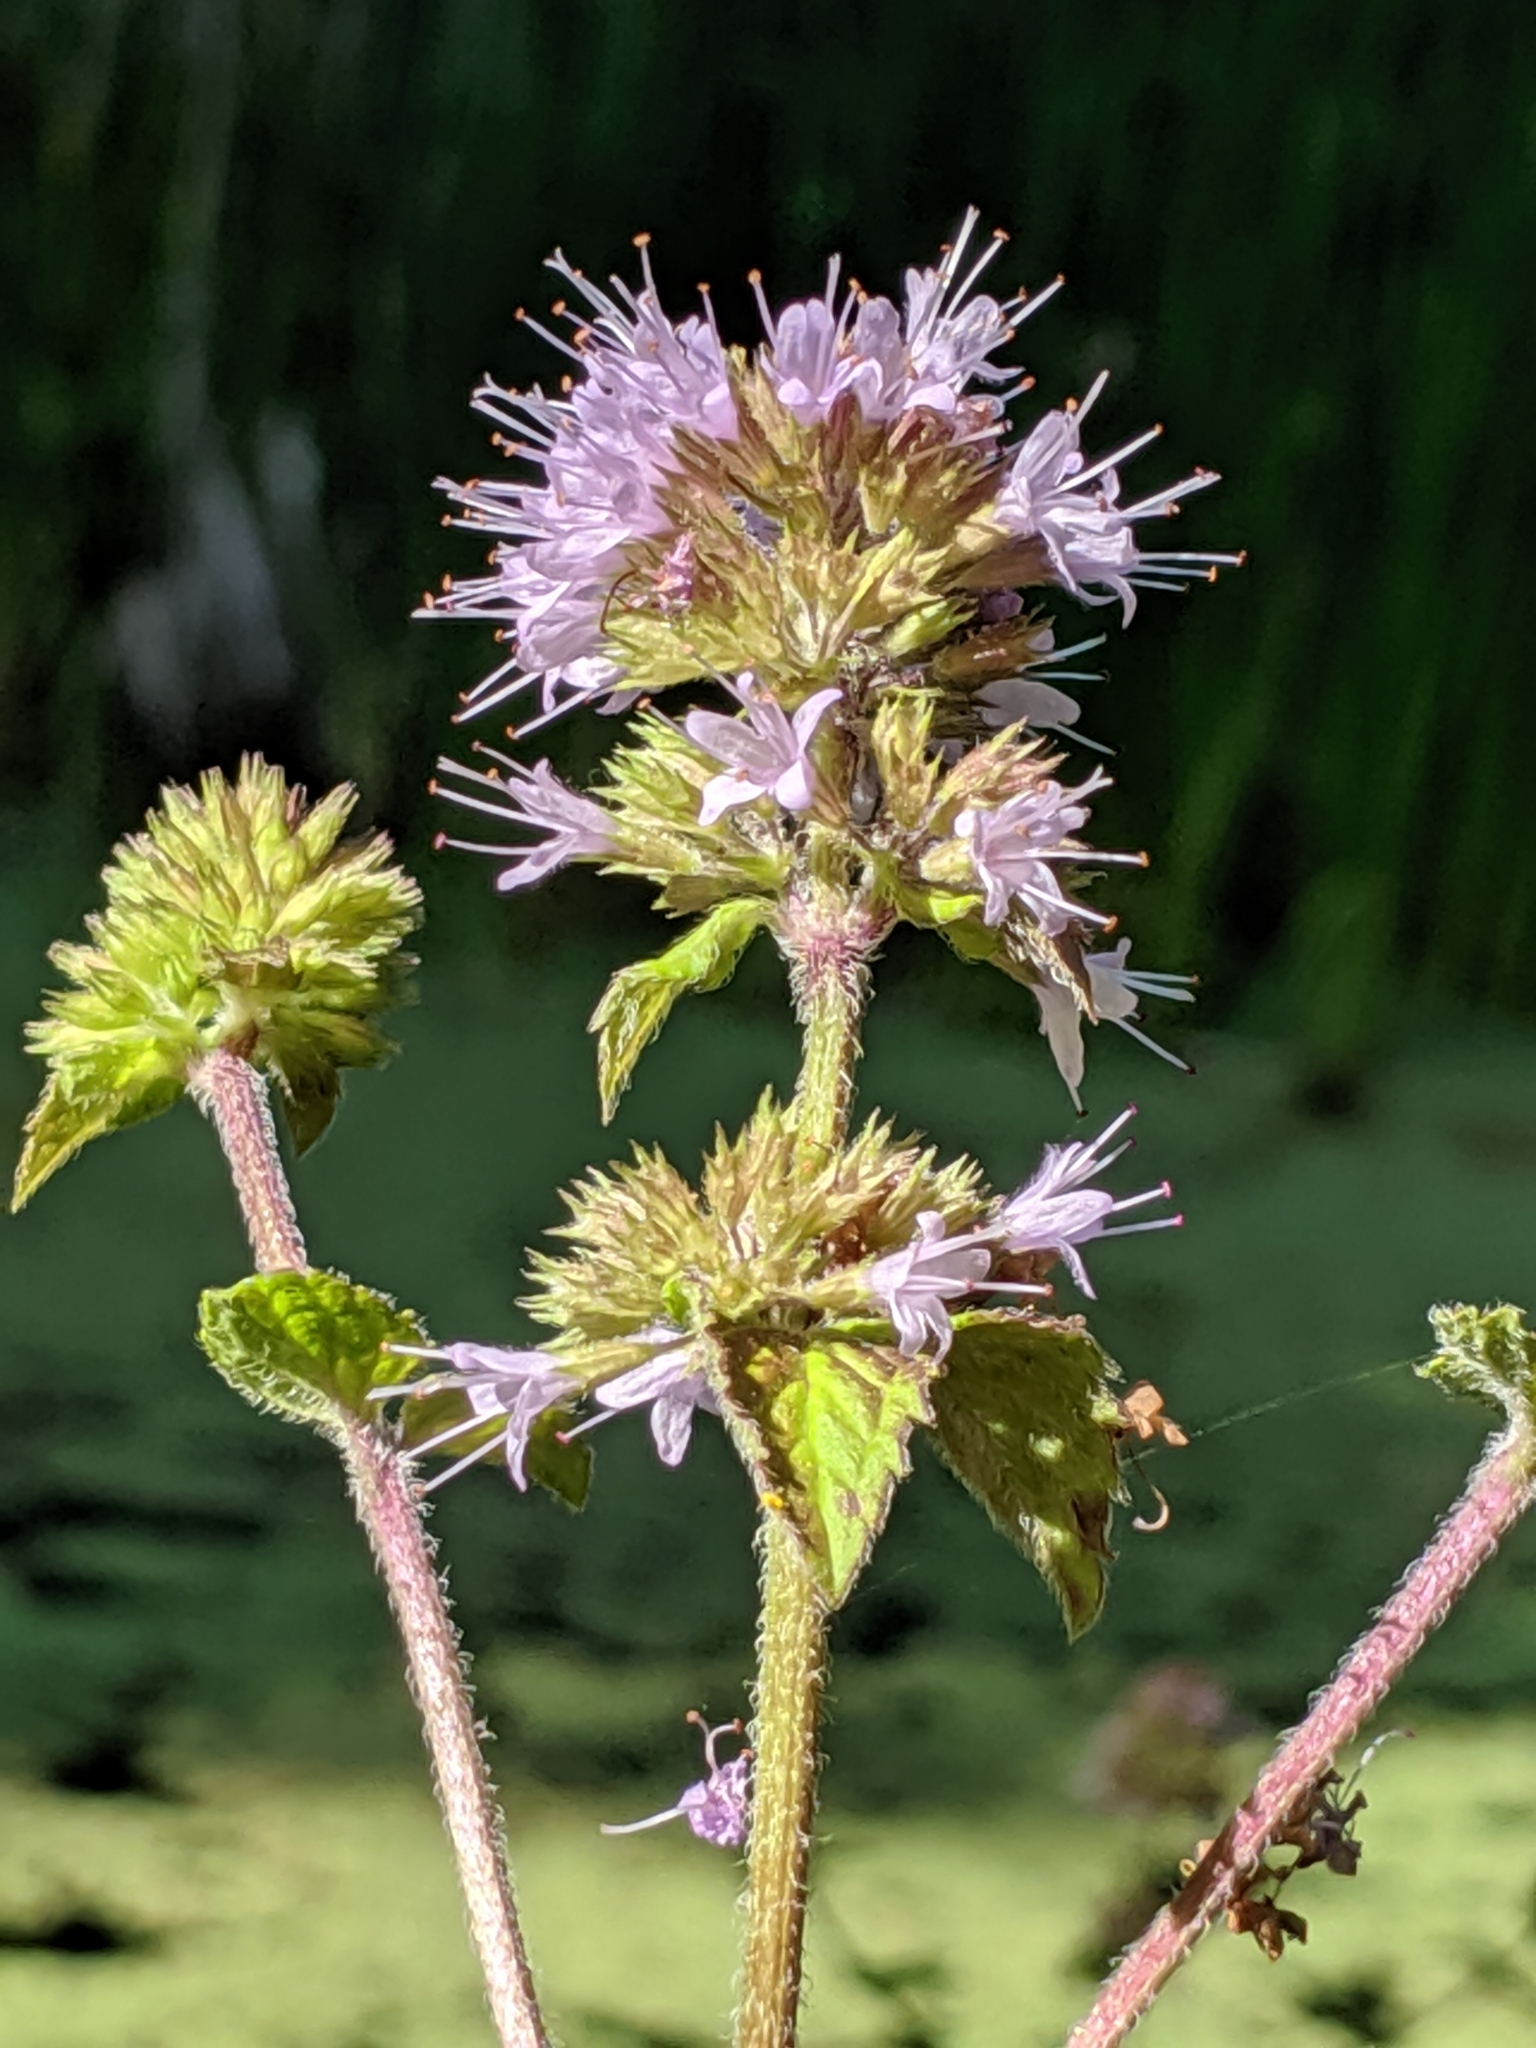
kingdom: Plantae
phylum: Tracheophyta
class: Magnoliopsida
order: Lamiales
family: Lamiaceae
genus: Mentha
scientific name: Mentha aquatica
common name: Water mint
